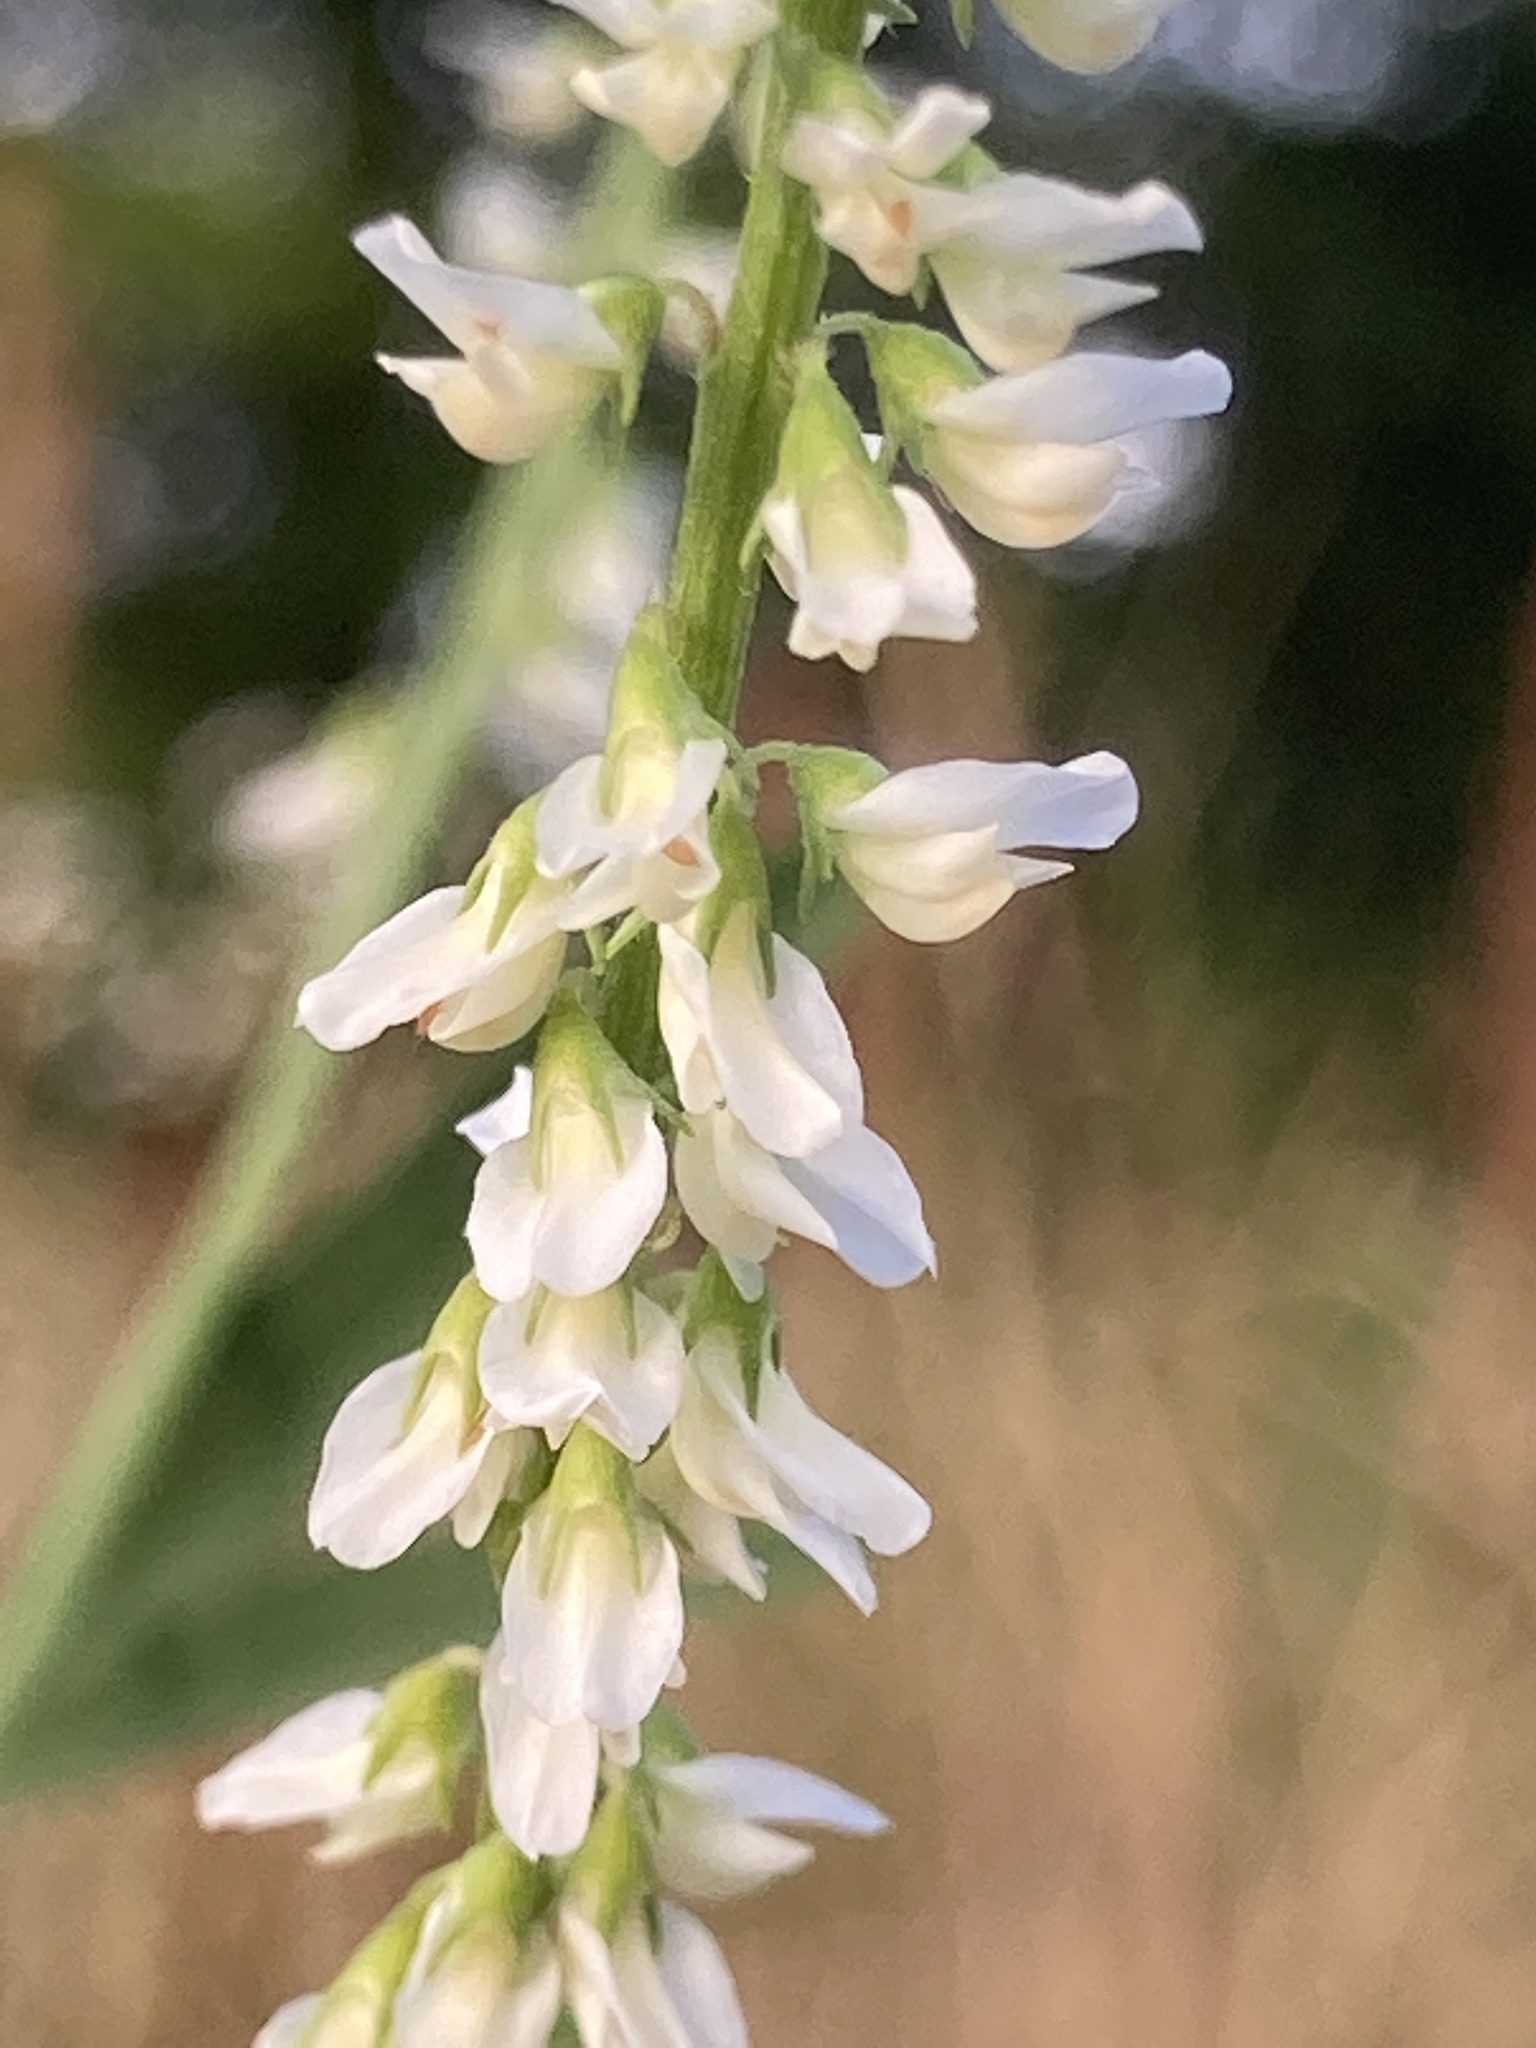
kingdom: Plantae
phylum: Tracheophyta
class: Magnoliopsida
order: Fabales
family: Fabaceae
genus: Melilotus
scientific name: Melilotus albus
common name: White melilot
